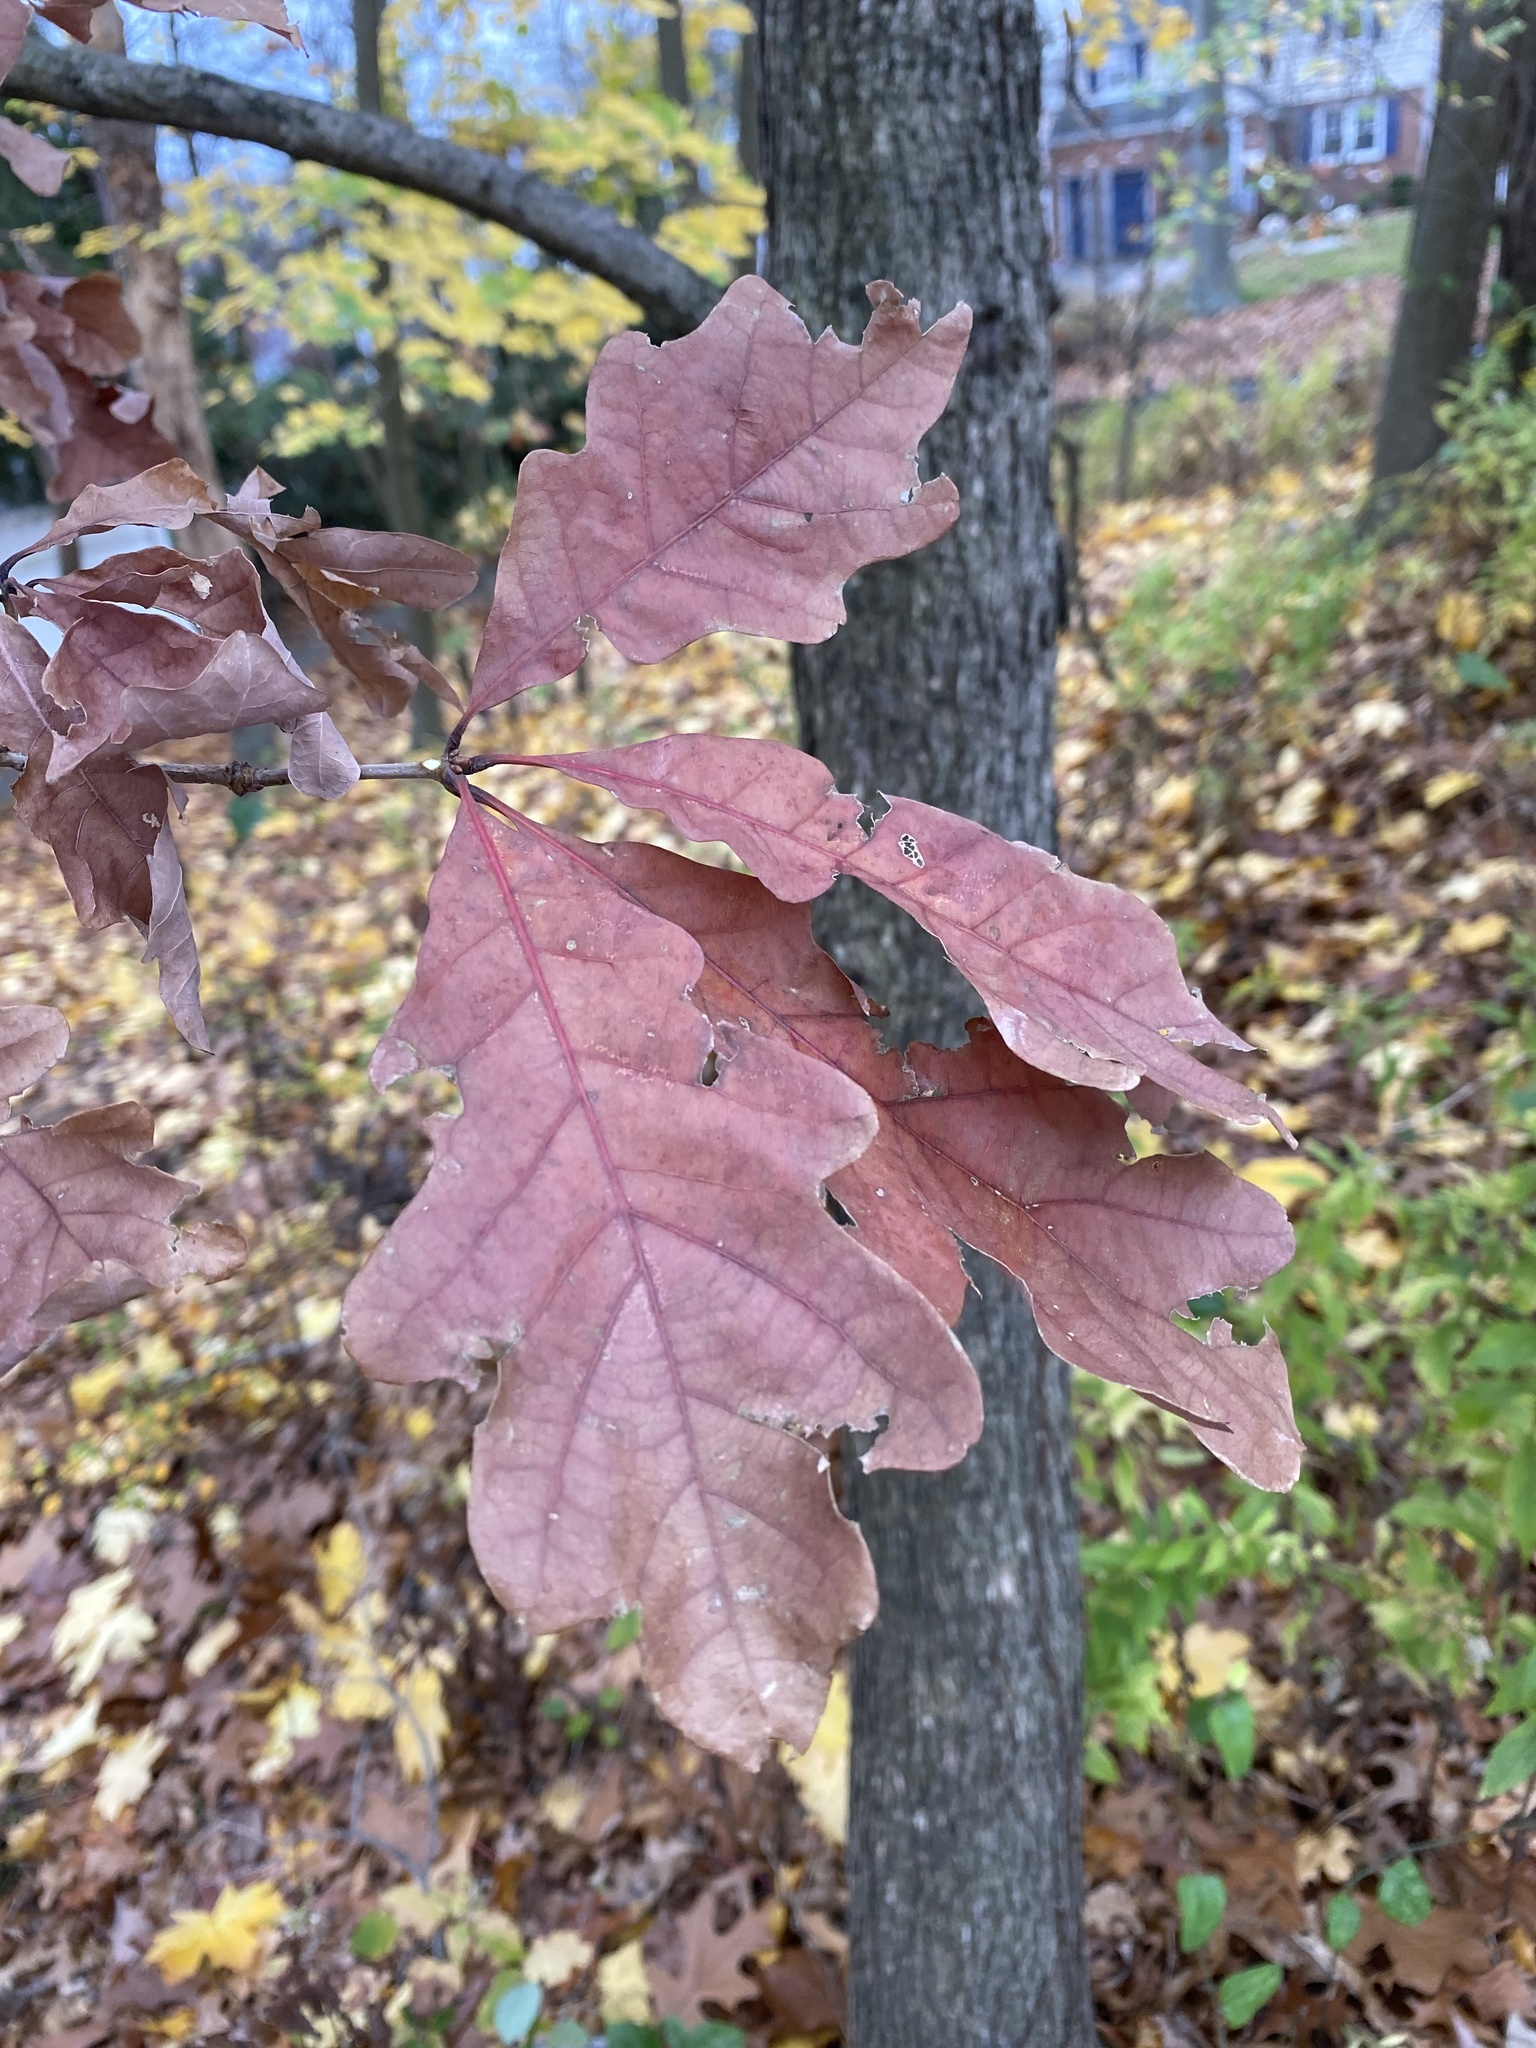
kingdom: Plantae
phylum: Tracheophyta
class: Magnoliopsida
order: Fagales
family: Fagaceae
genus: Quercus
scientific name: Quercus alba
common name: White oak
